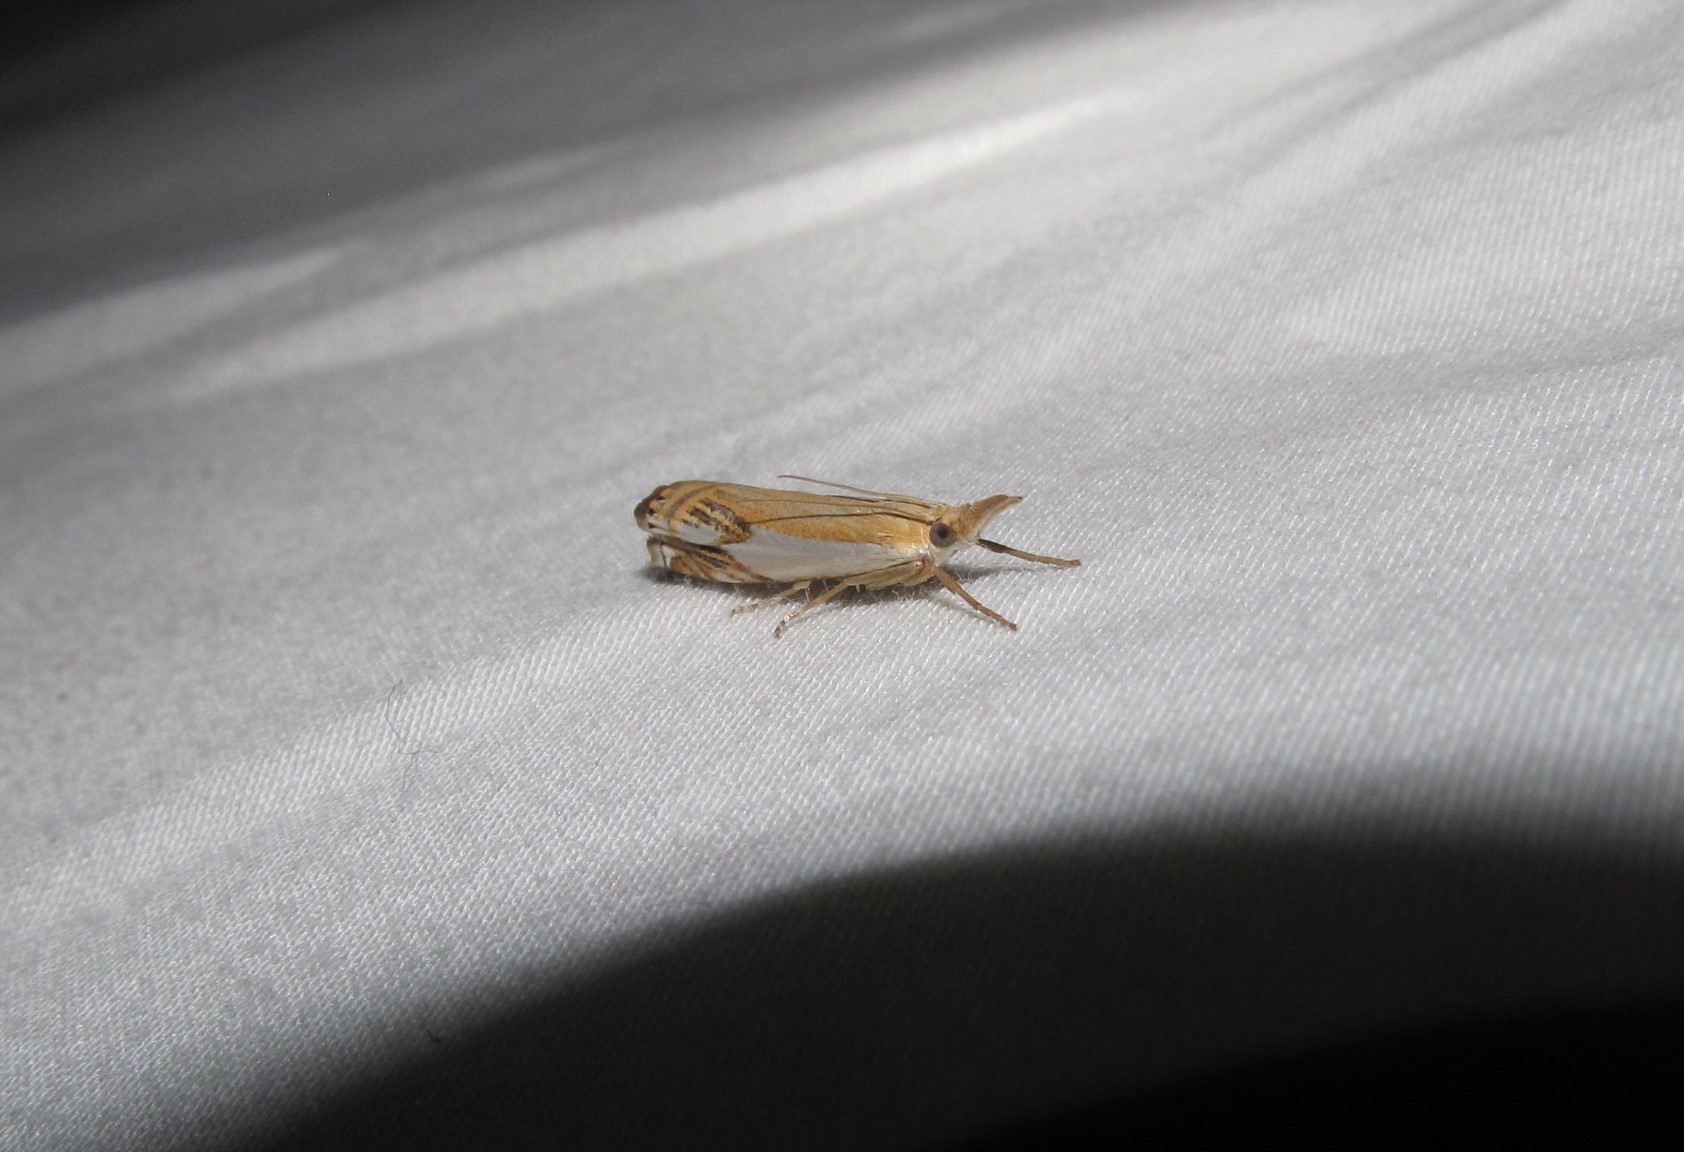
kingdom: Animalia
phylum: Arthropoda
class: Insecta
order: Lepidoptera
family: Crambidae
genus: Crambus
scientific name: Crambus agitatellus
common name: Double-banded grass-veneer
